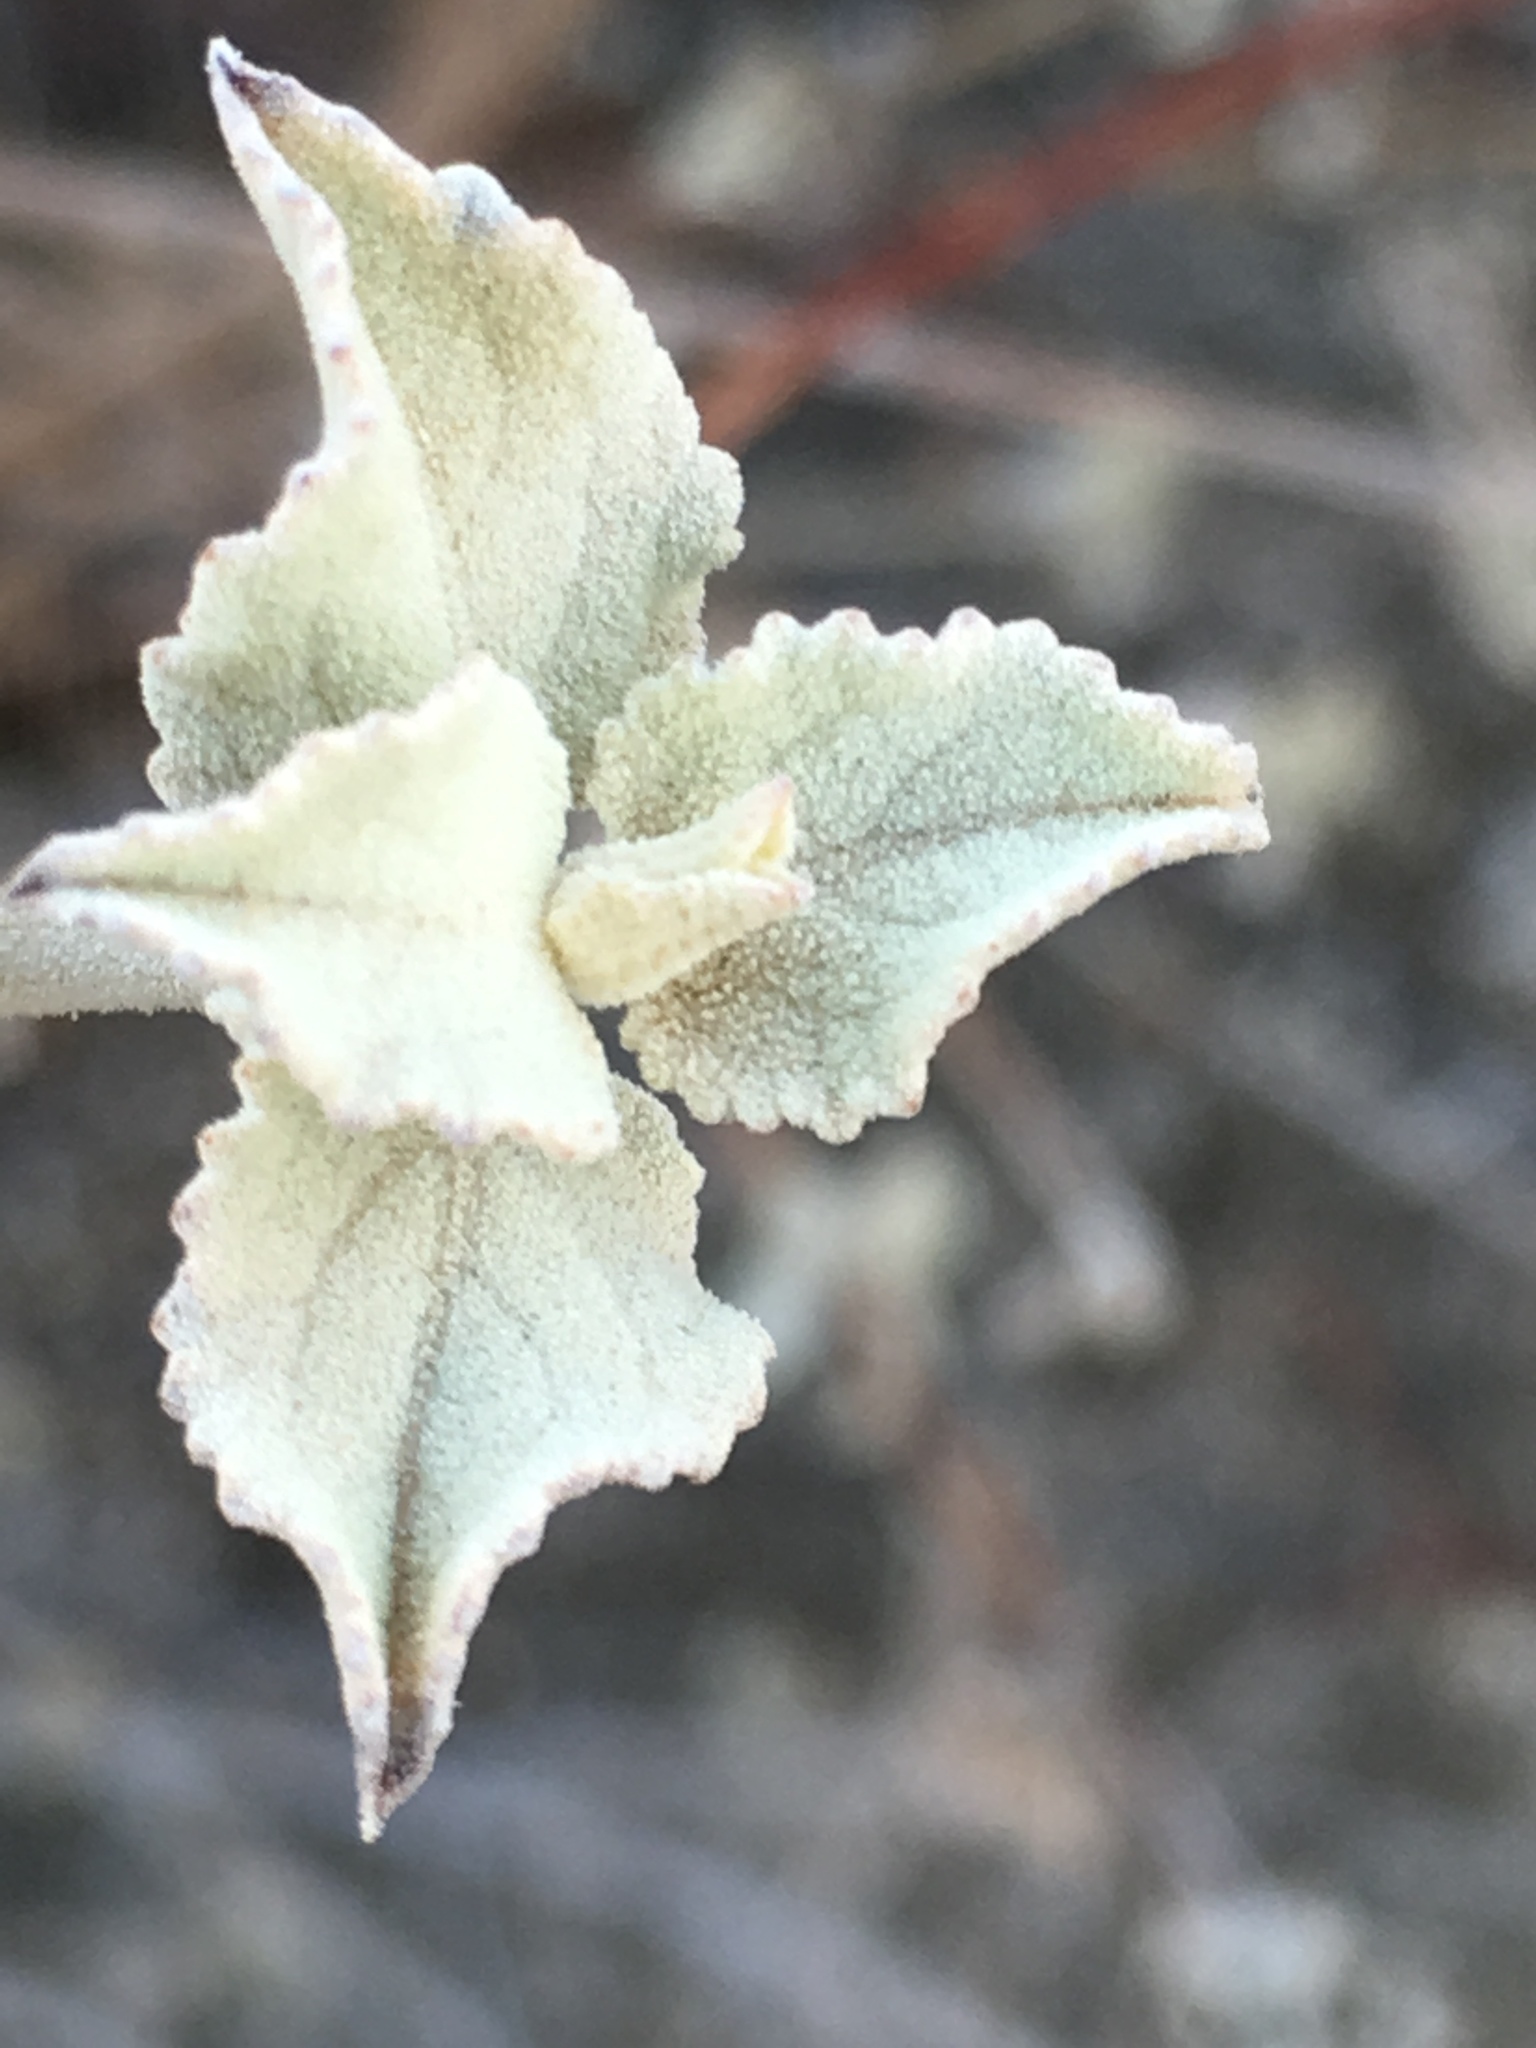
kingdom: Plantae
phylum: Tracheophyta
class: Magnoliopsida
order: Lamiales
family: Lamiaceae
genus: Condea
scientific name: Condea emoryi
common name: Chia
